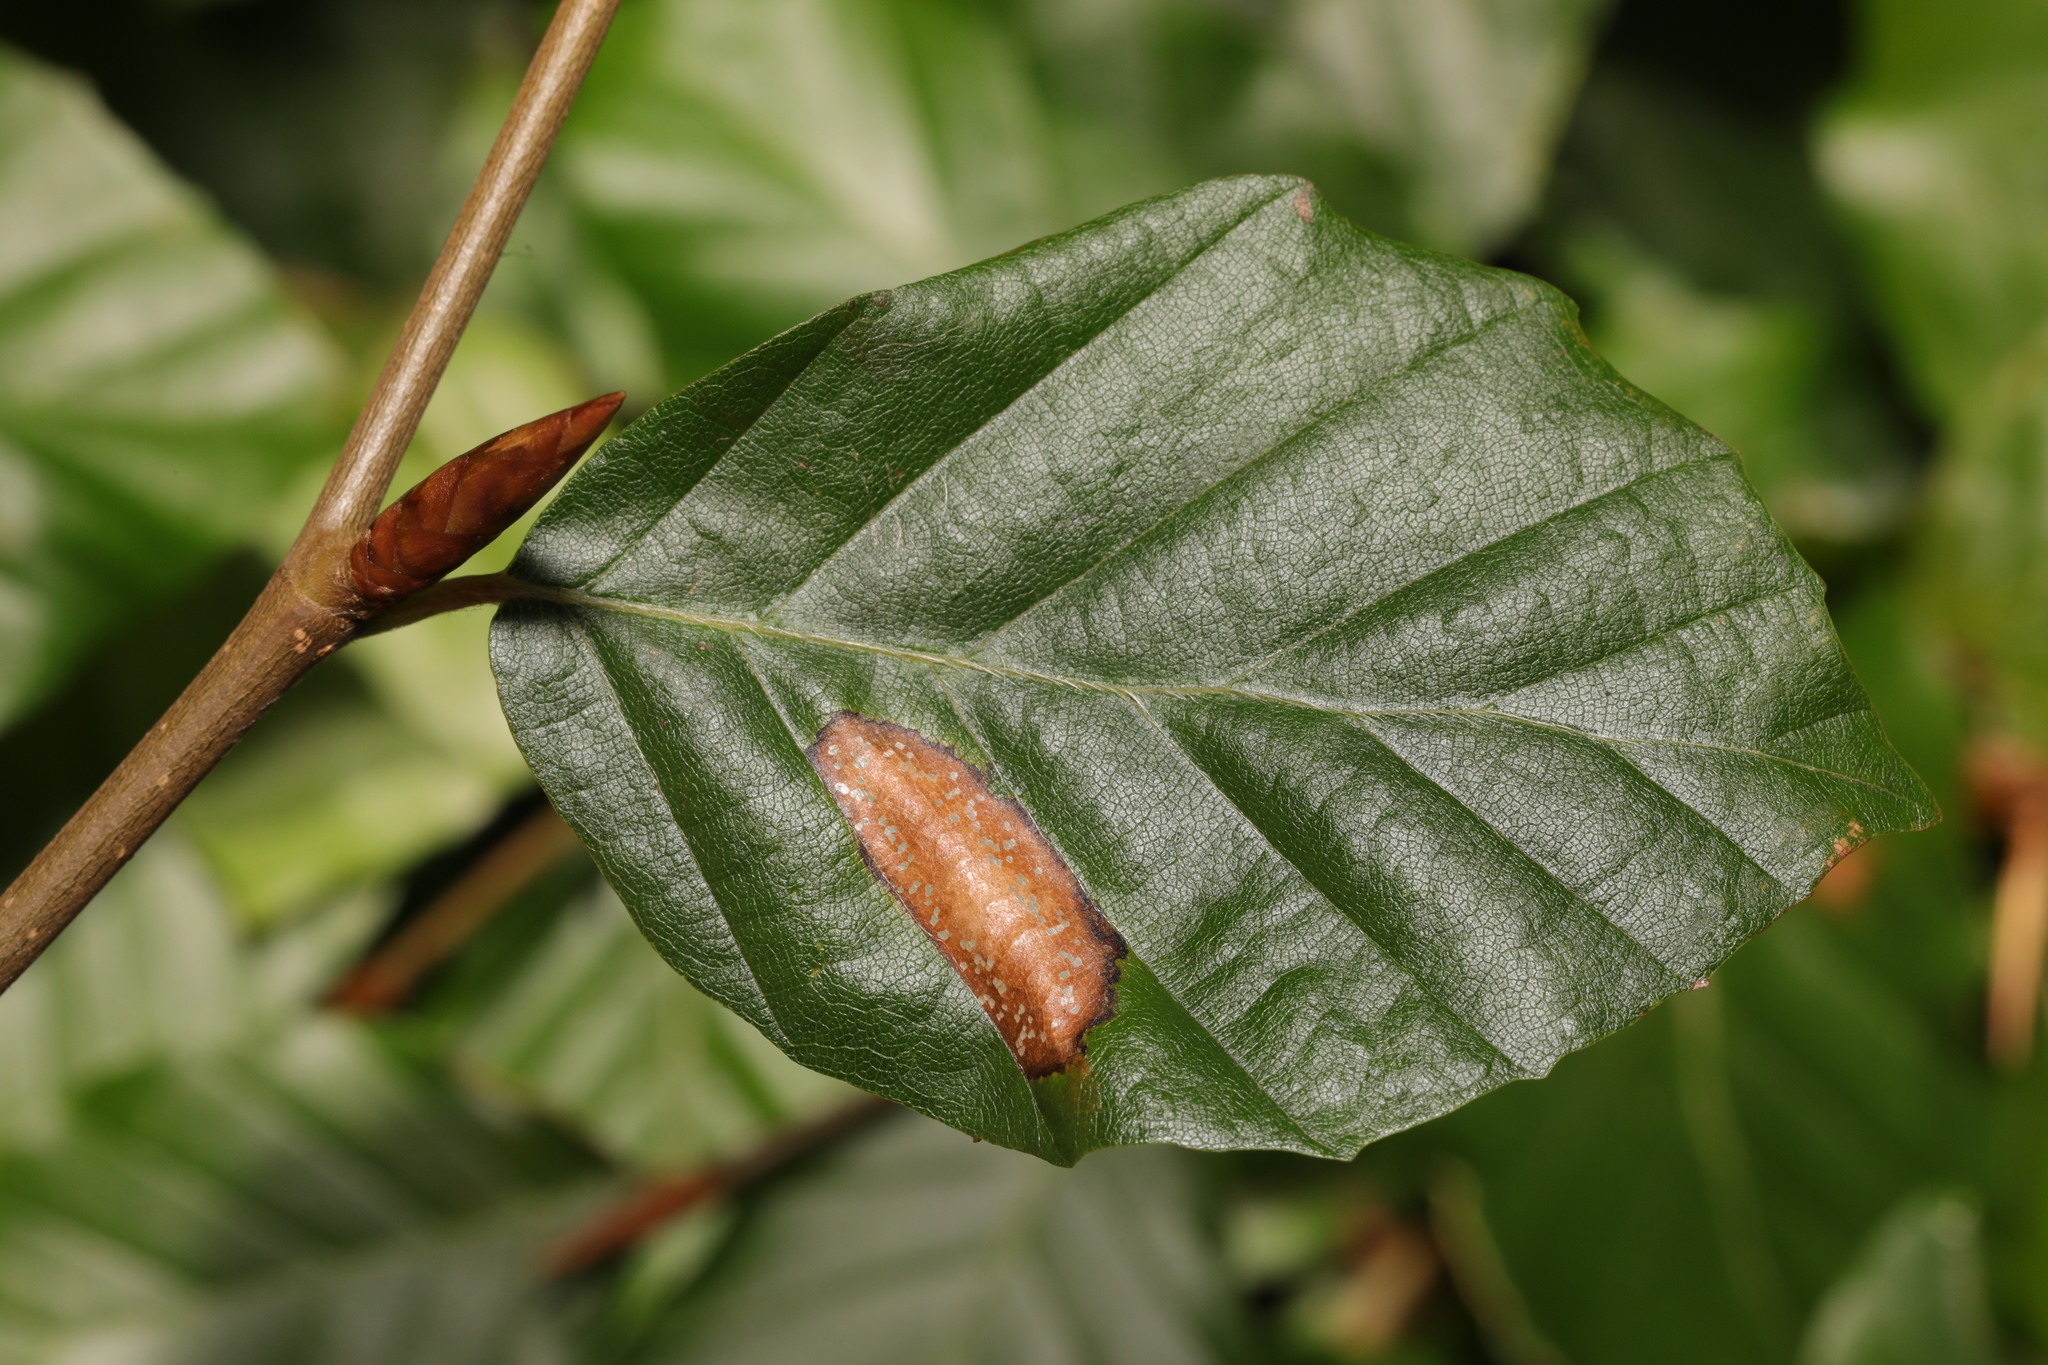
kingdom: Animalia
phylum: Arthropoda
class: Insecta
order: Lepidoptera
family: Gracillariidae
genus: Phyllonorycter
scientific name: Phyllonorycter maestingella
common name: Beech midget
